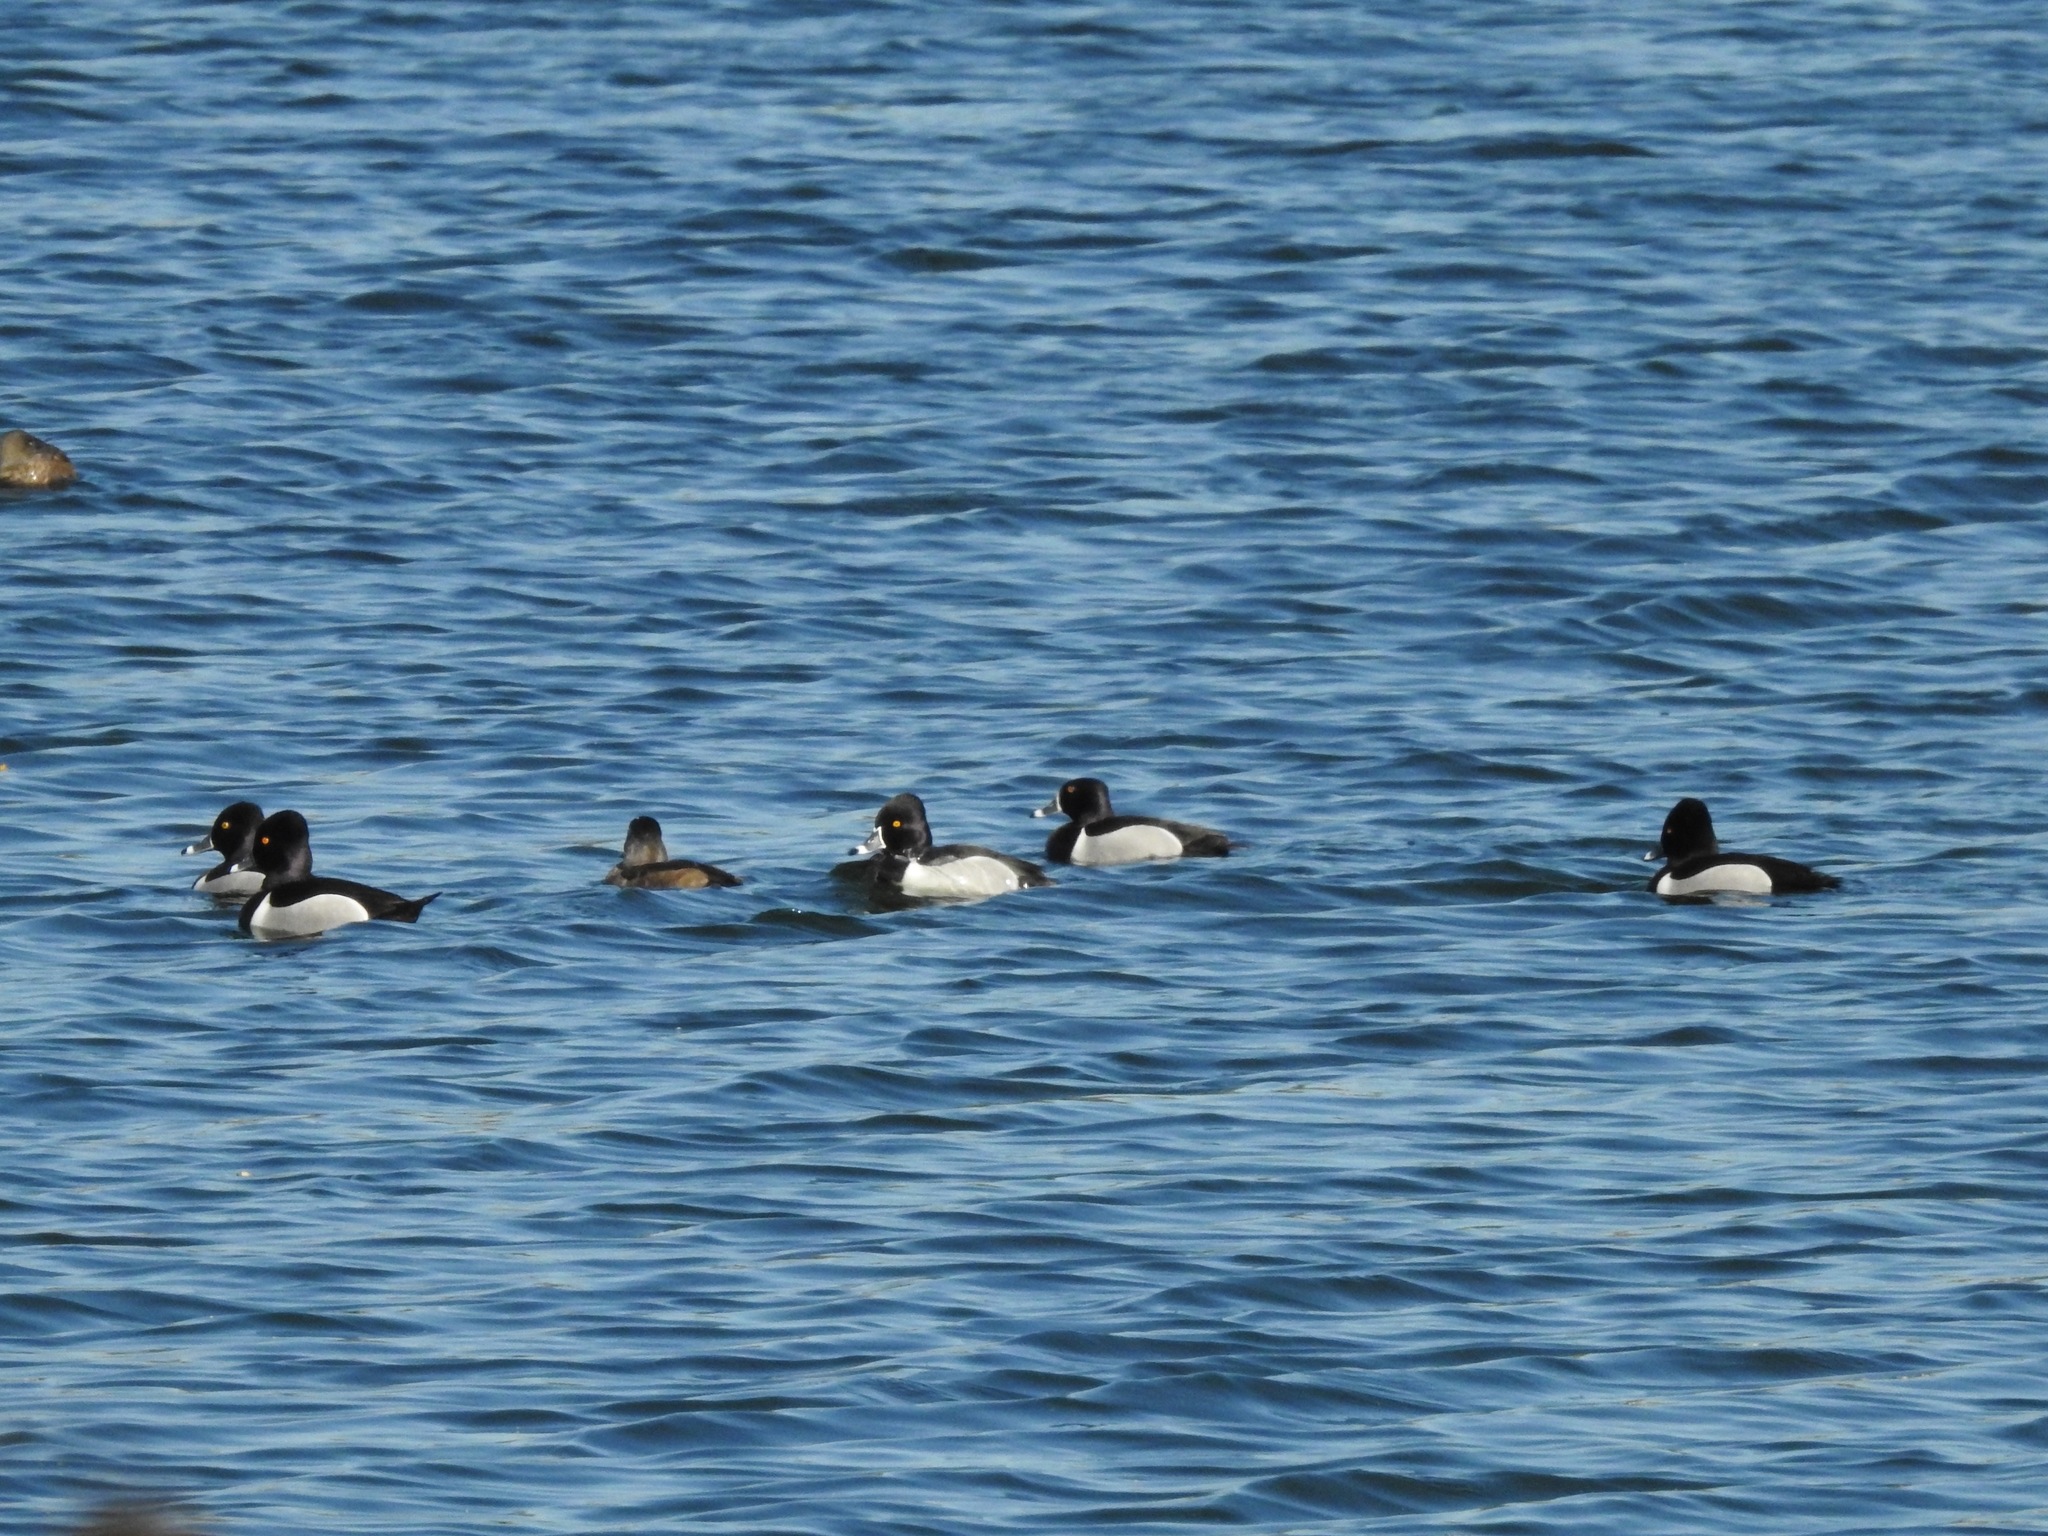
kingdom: Animalia
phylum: Chordata
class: Aves
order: Anseriformes
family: Anatidae
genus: Aythya
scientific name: Aythya collaris
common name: Ring-necked duck
